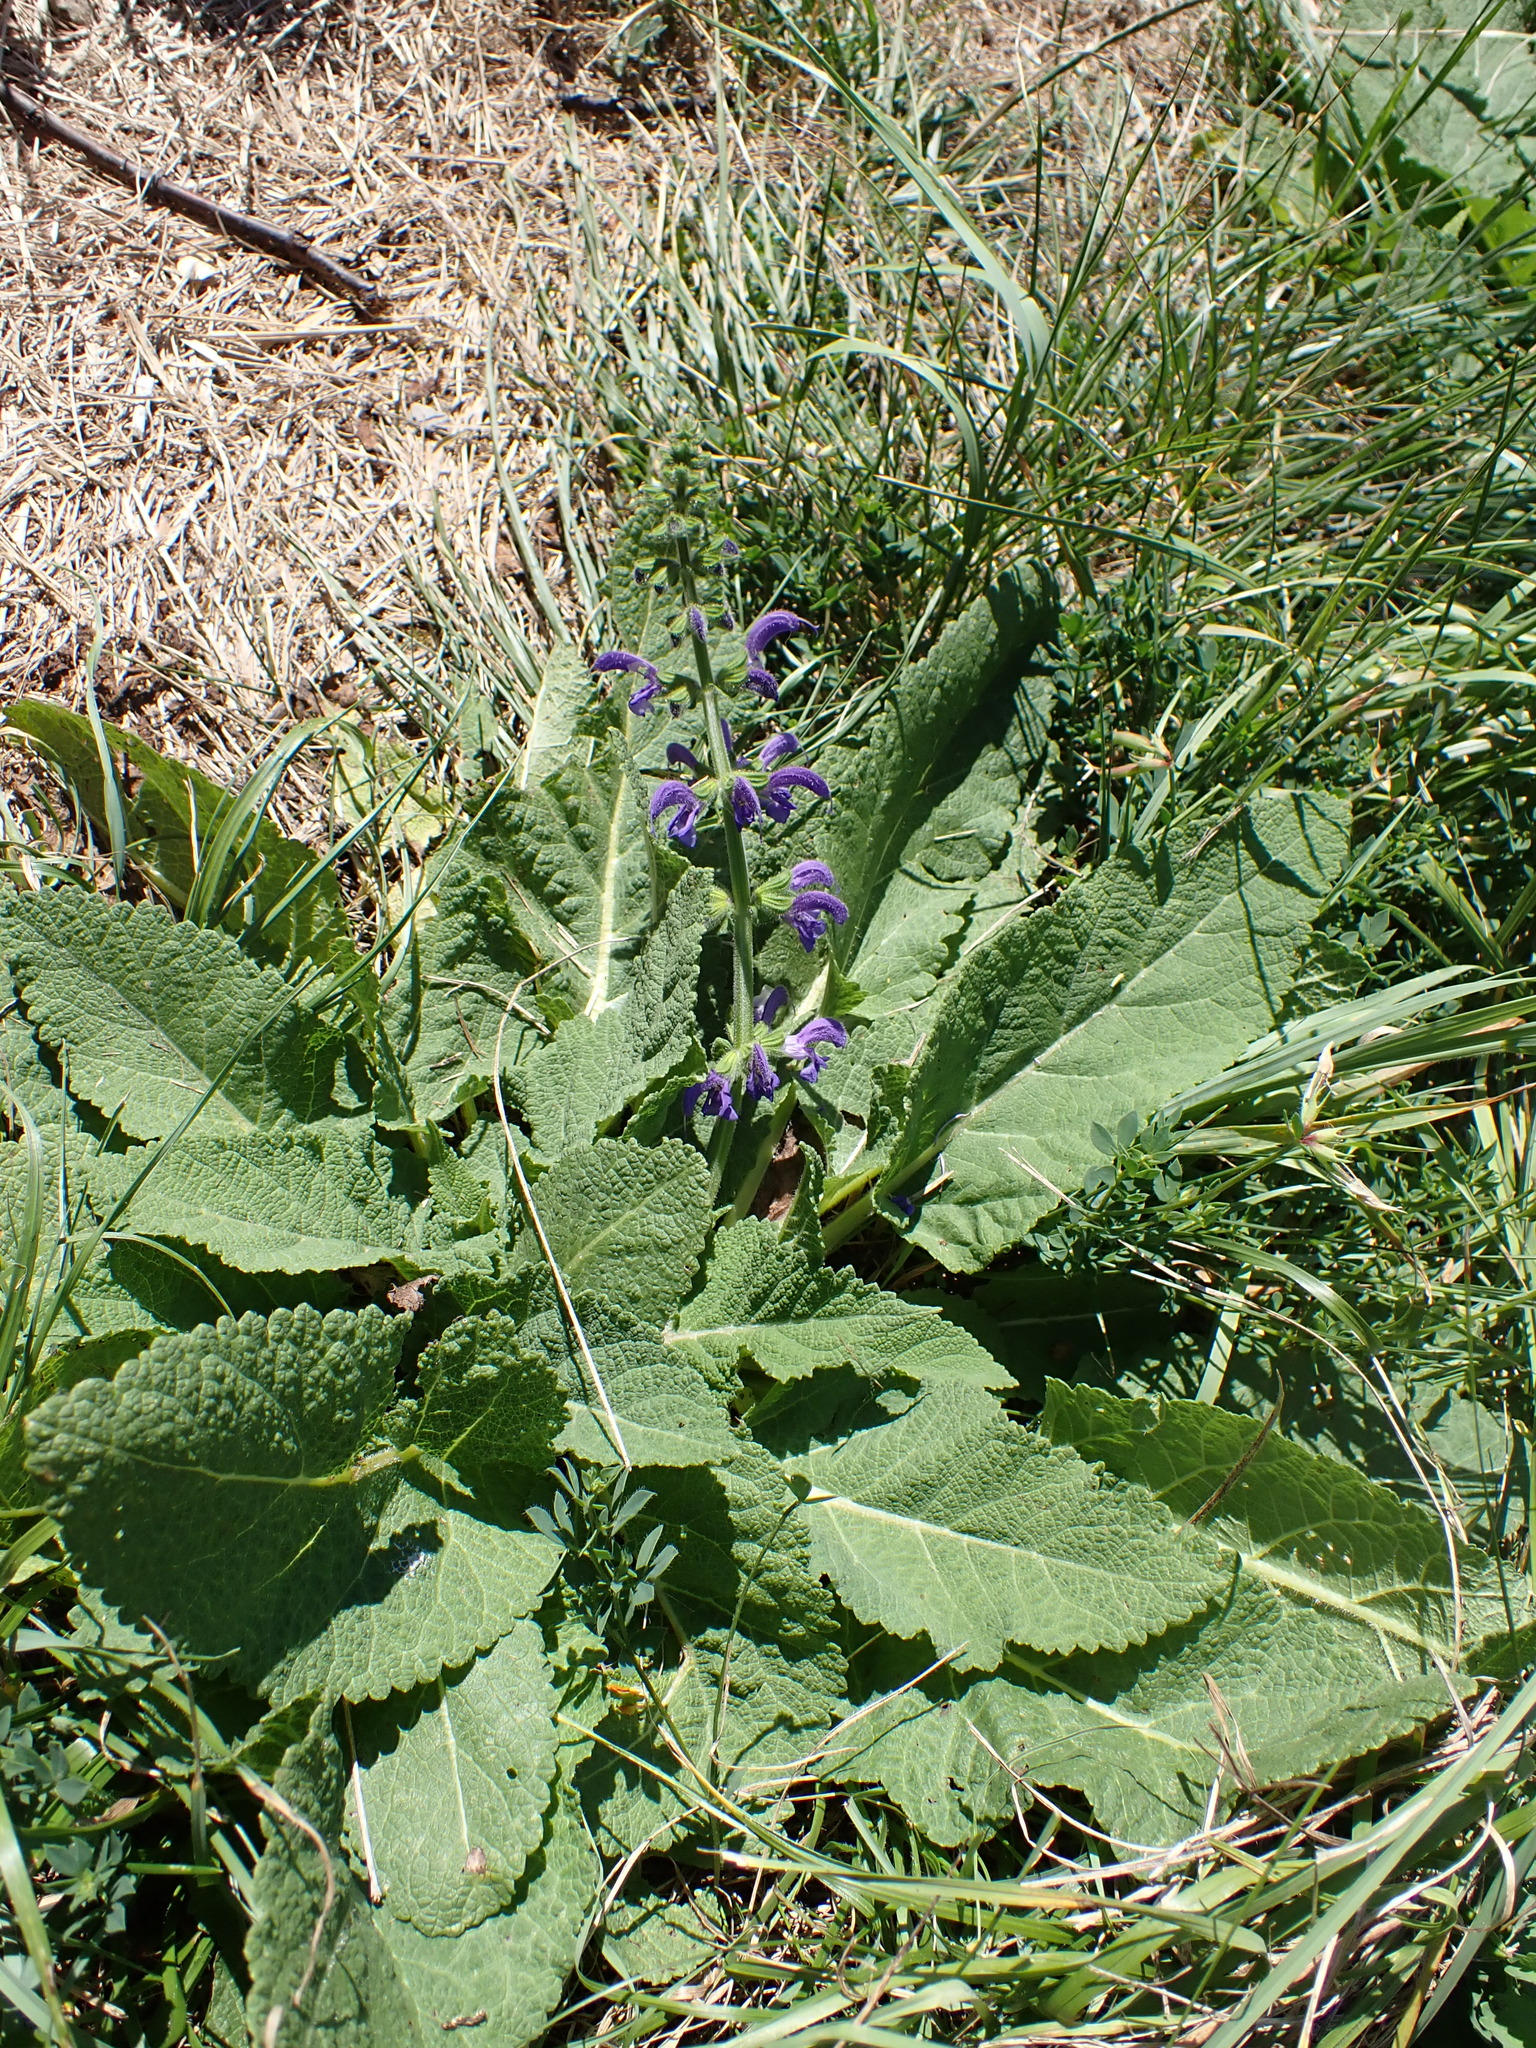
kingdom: Plantae
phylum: Tracheophyta
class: Magnoliopsida
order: Lamiales
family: Lamiaceae
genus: Salvia
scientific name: Salvia pratensis
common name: Meadow sage
